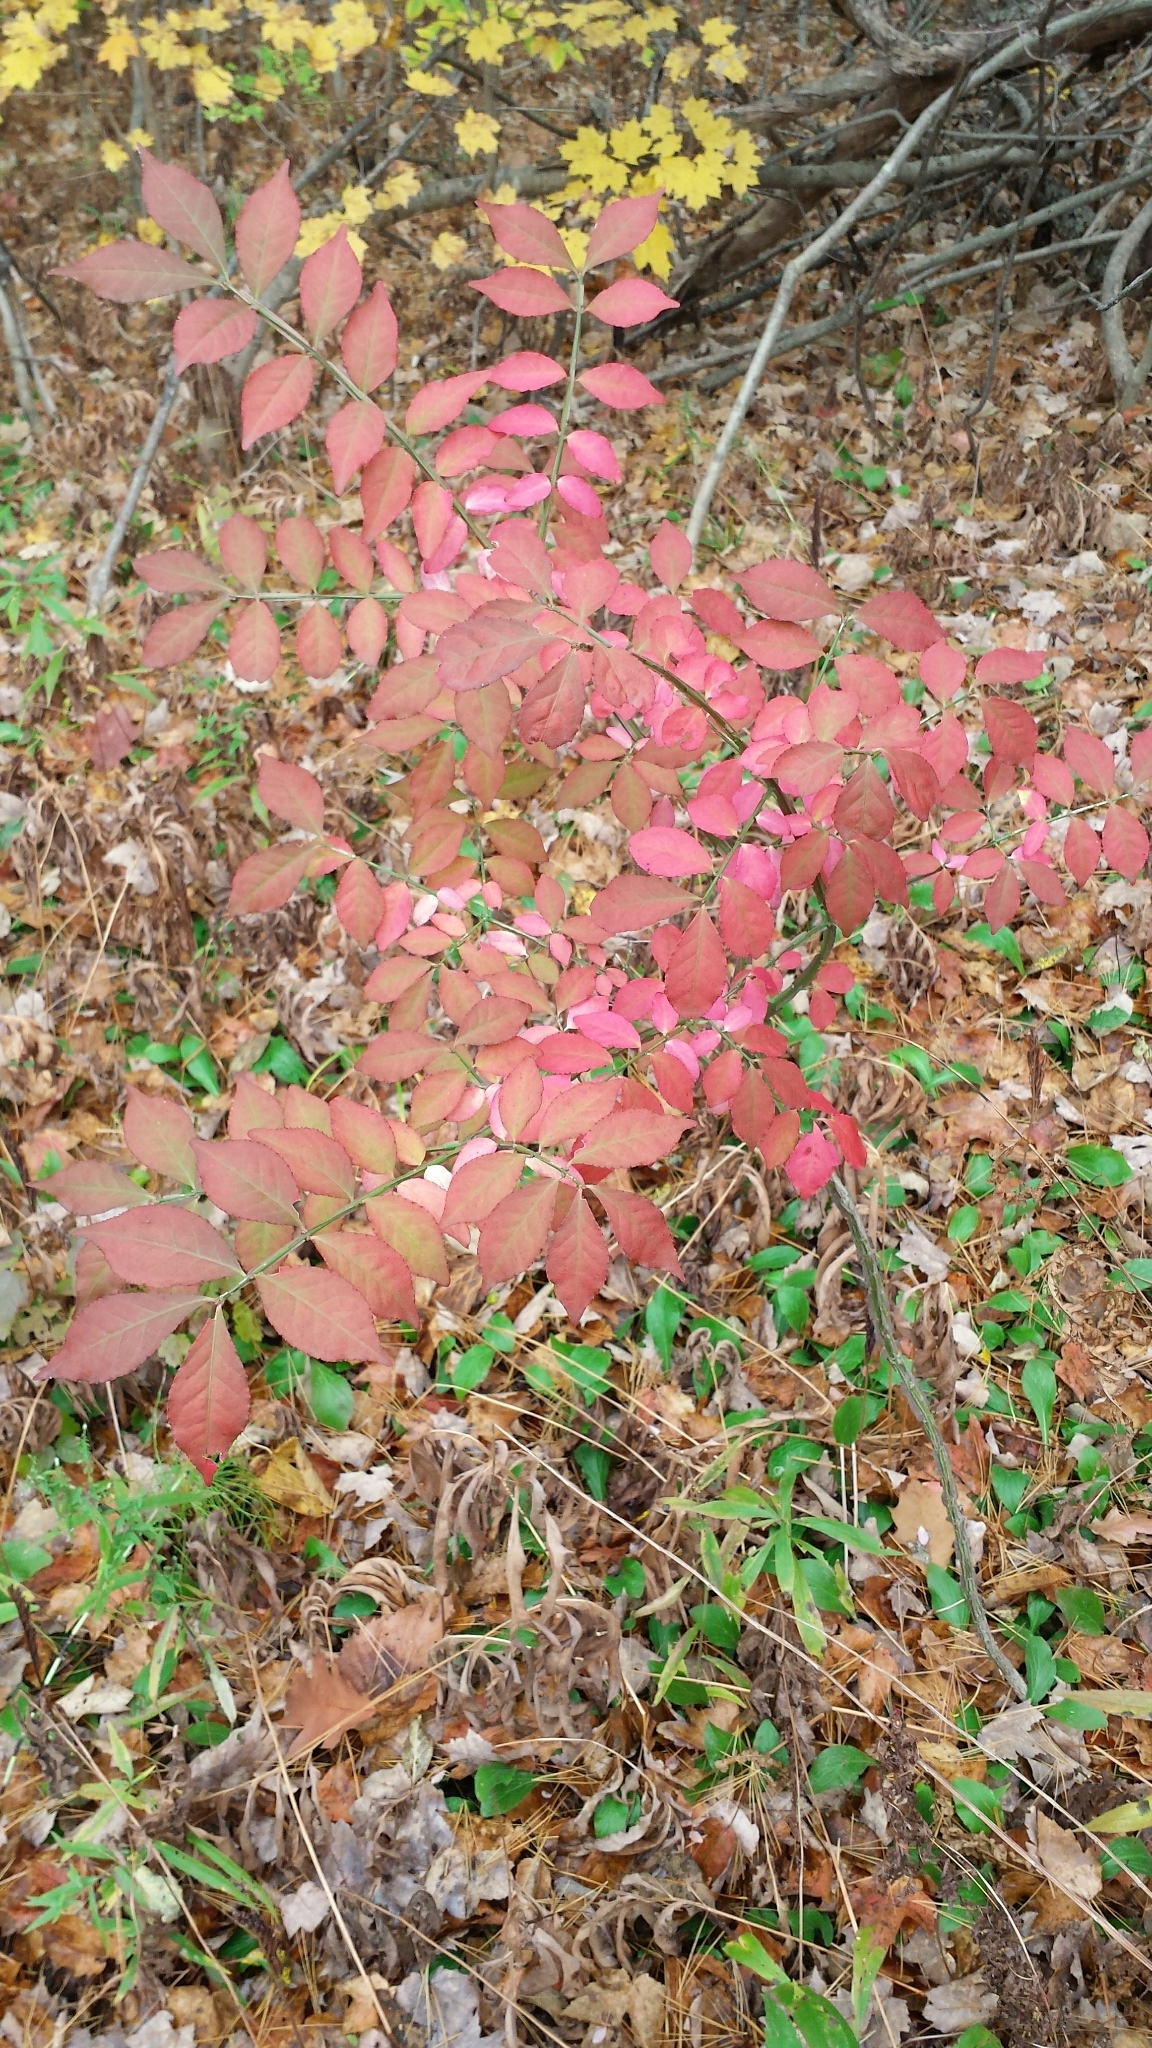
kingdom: Plantae
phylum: Tracheophyta
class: Magnoliopsida
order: Celastrales
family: Celastraceae
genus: Euonymus
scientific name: Euonymus alatus
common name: Winged euonymus
